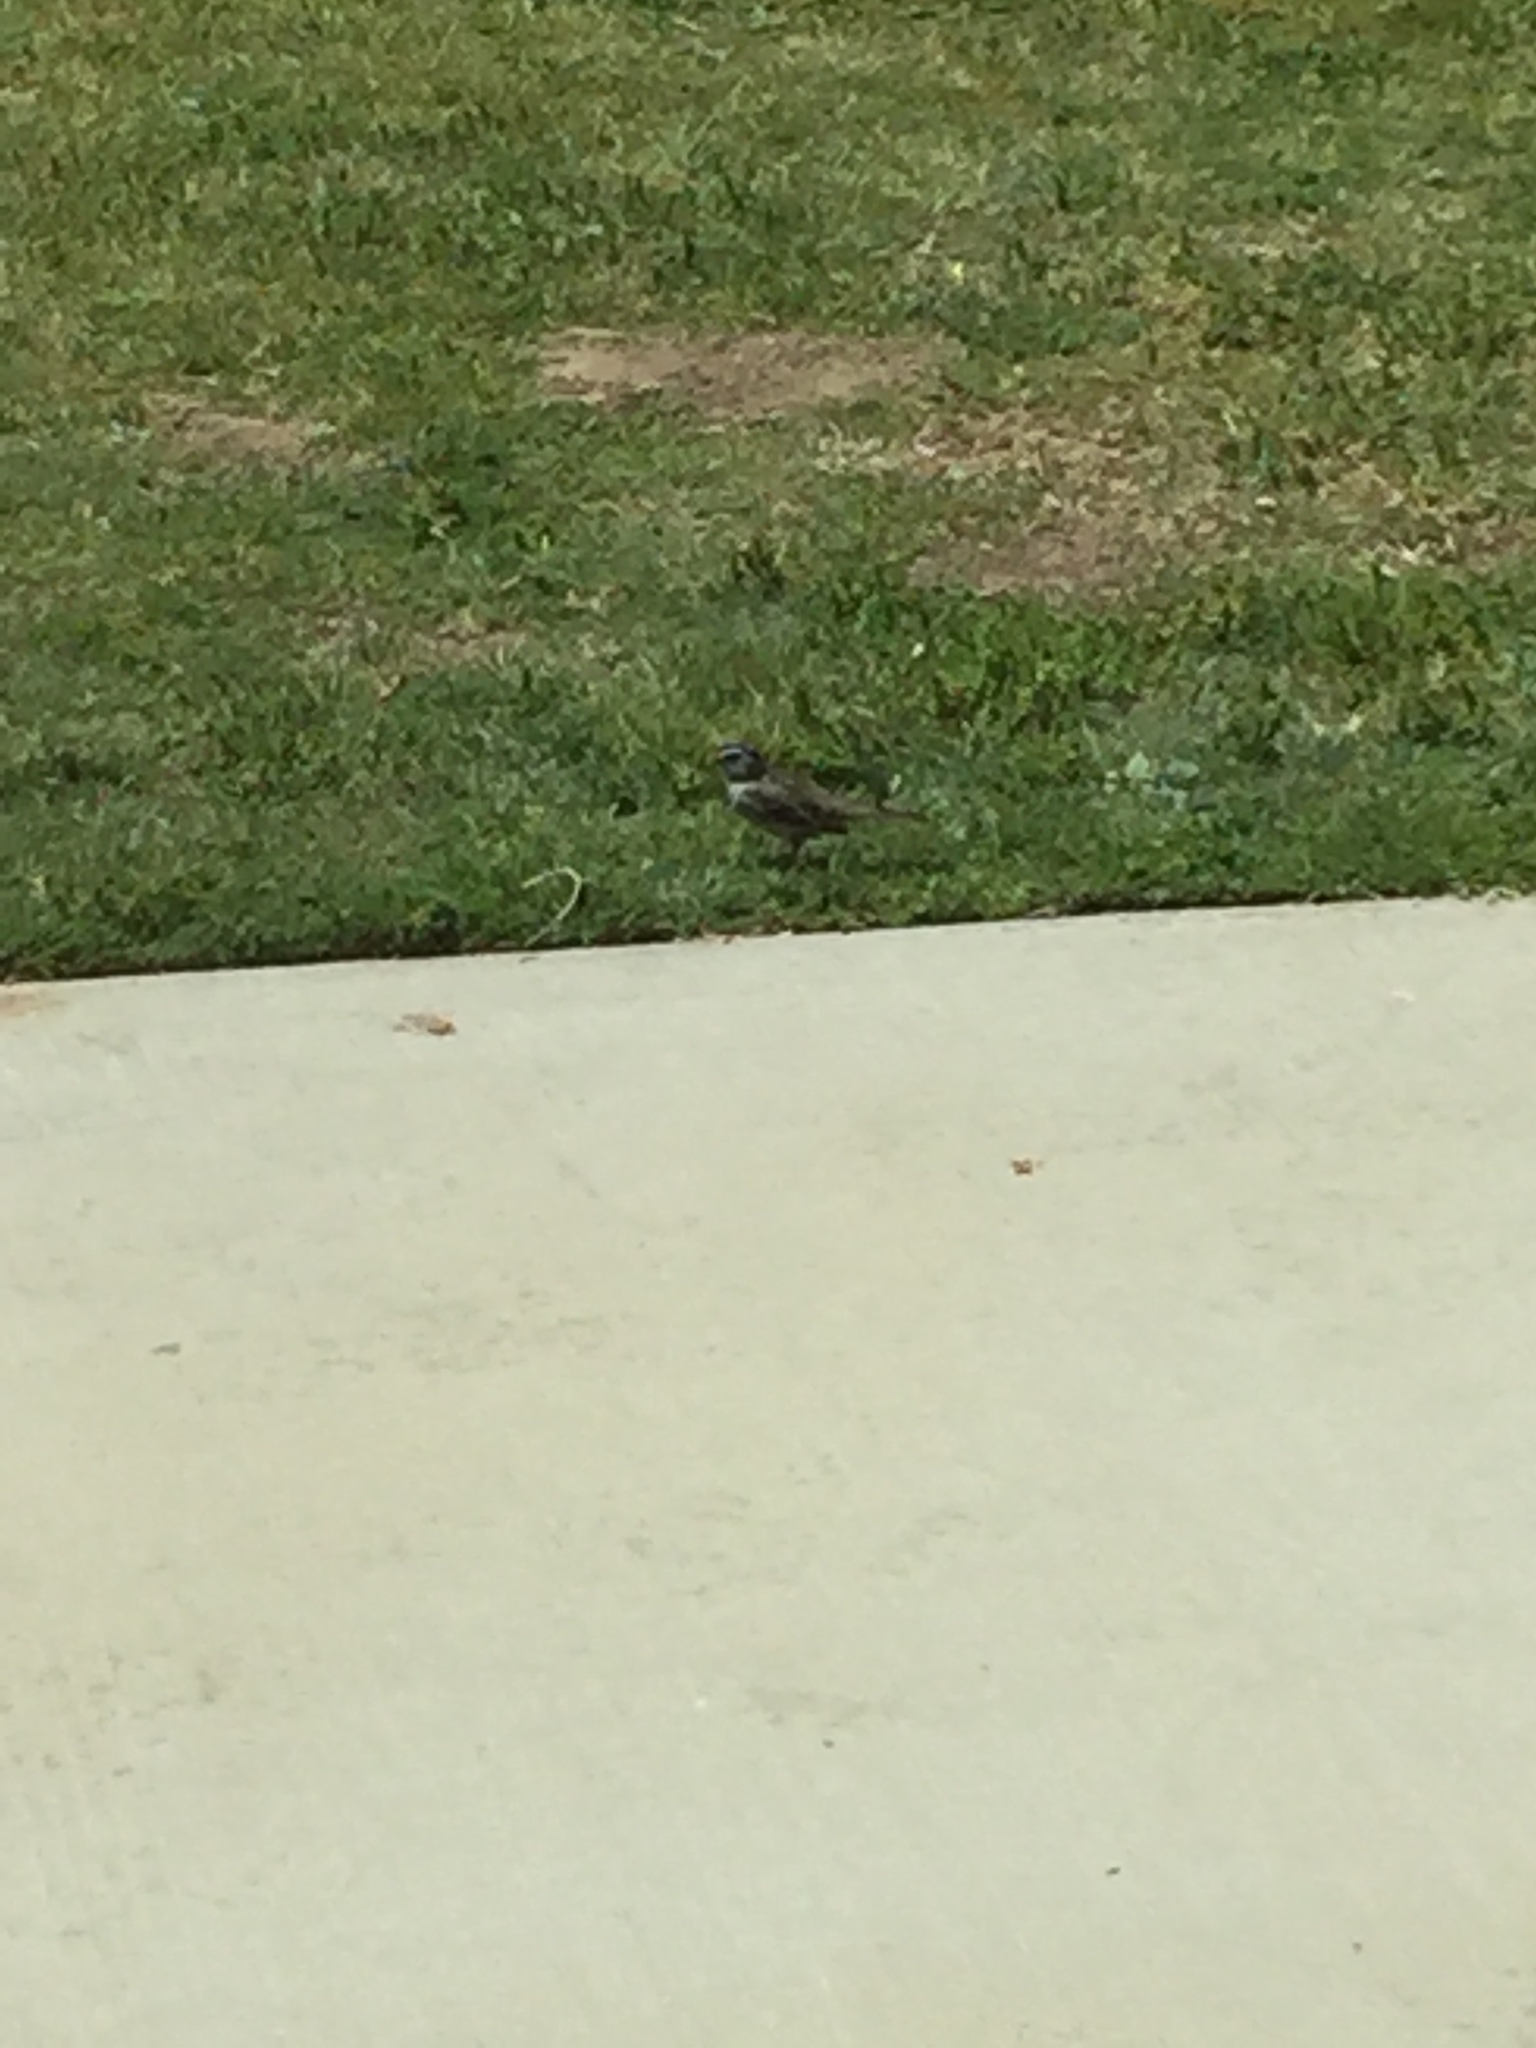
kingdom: Animalia
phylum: Chordata
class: Aves
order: Passeriformes
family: Passerellidae
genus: Zonotrichia
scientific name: Zonotrichia leucophrys
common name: White-crowned sparrow
